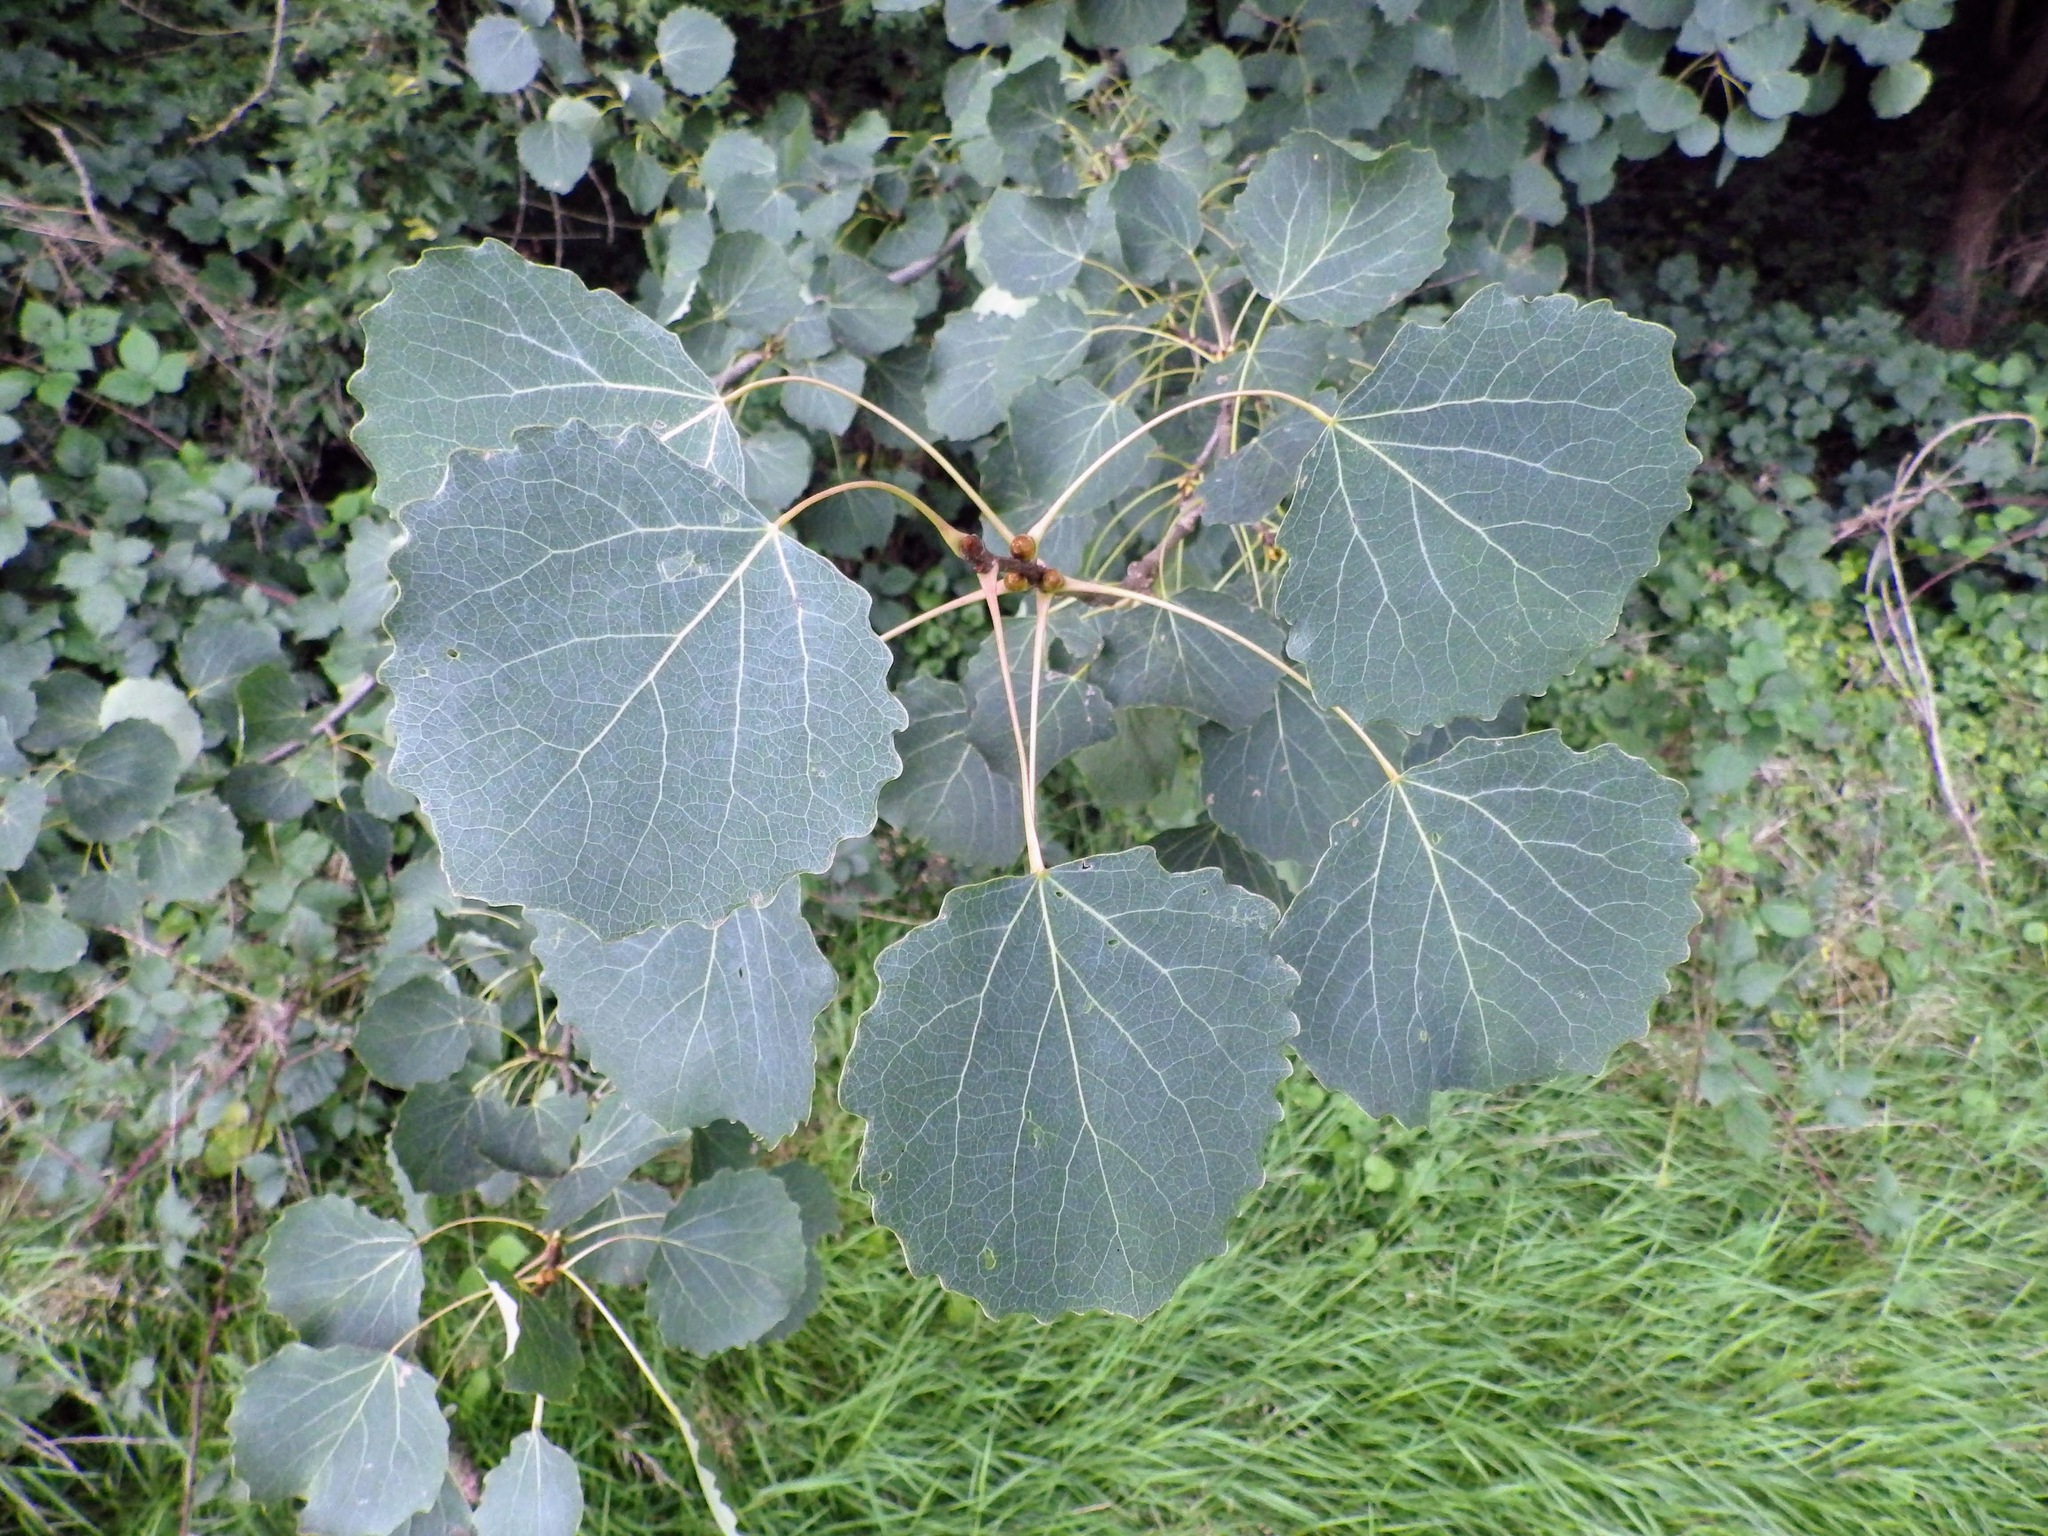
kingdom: Plantae
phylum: Tracheophyta
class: Magnoliopsida
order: Malpighiales
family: Salicaceae
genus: Populus
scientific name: Populus tremula
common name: European aspen
